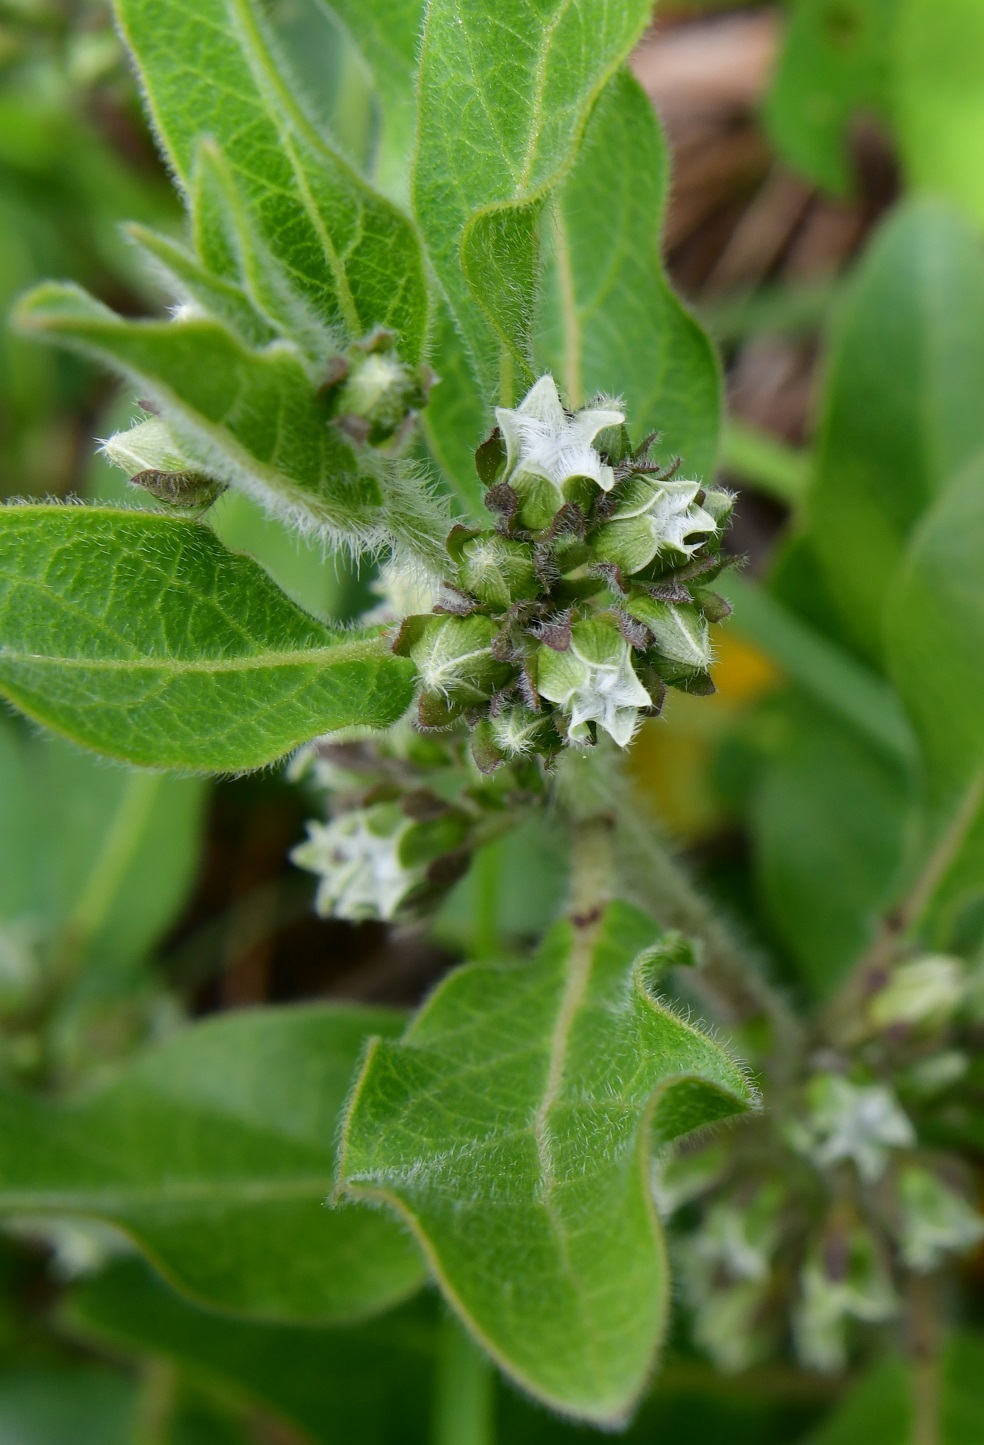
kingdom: Plantae
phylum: Tracheophyta
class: Magnoliopsida
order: Gentianales
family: Apocynaceae
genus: Pherotrichis
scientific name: Pherotrichis villosa
